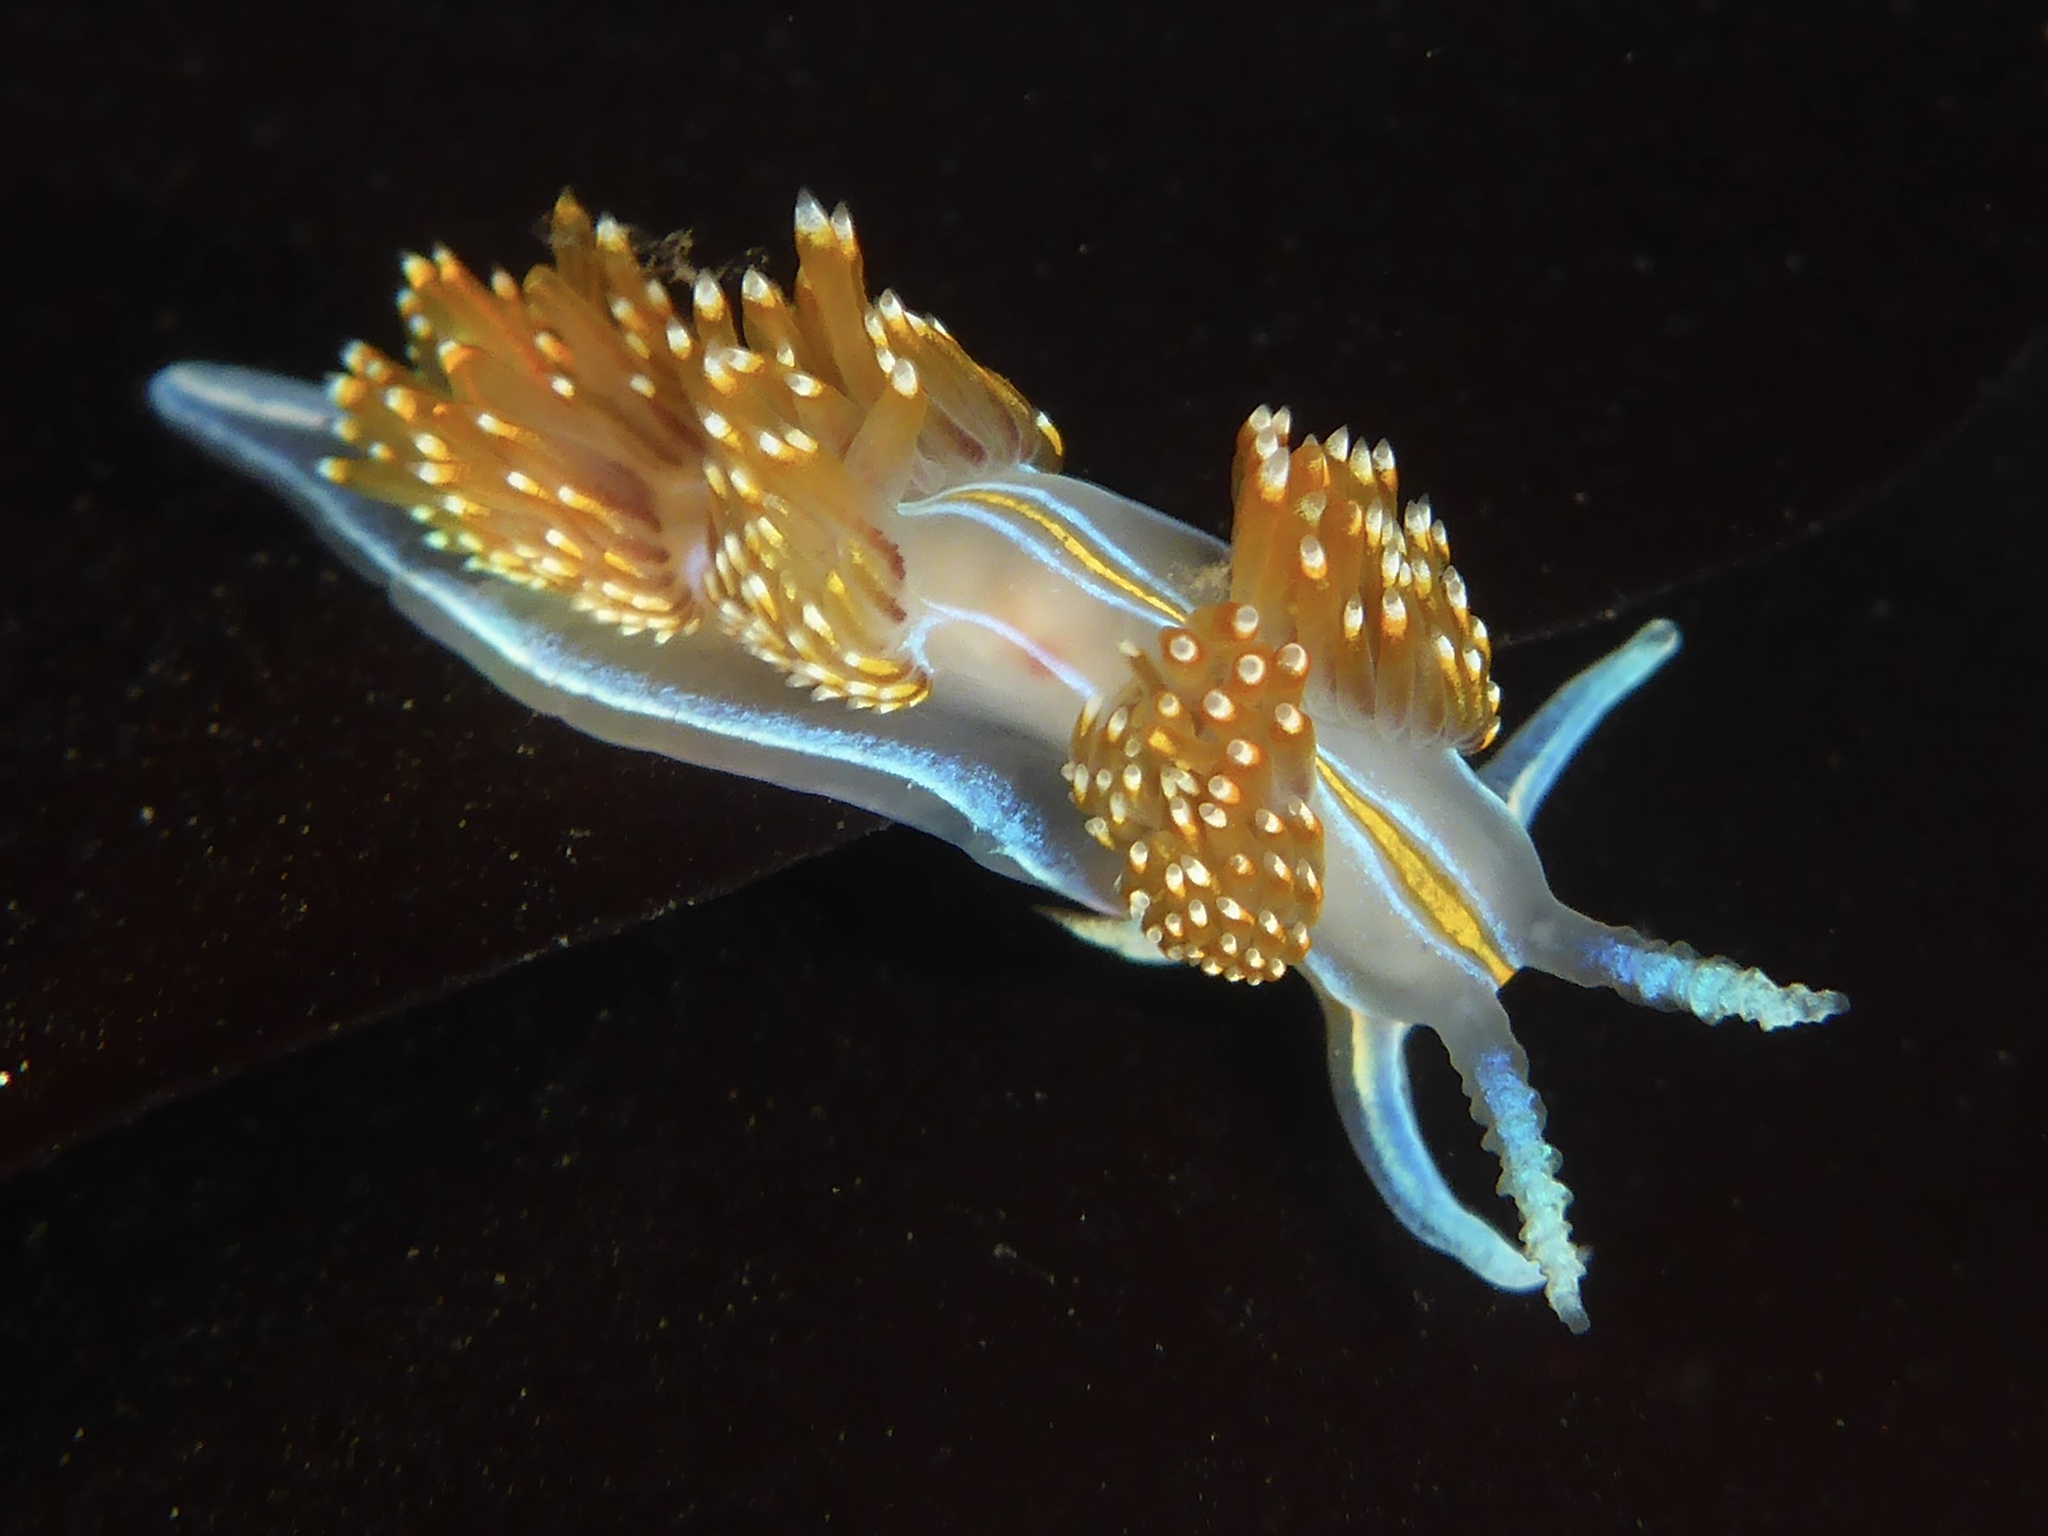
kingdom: Animalia
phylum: Mollusca
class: Gastropoda
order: Nudibranchia
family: Myrrhinidae
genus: Hermissenda
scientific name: Hermissenda opalescens
